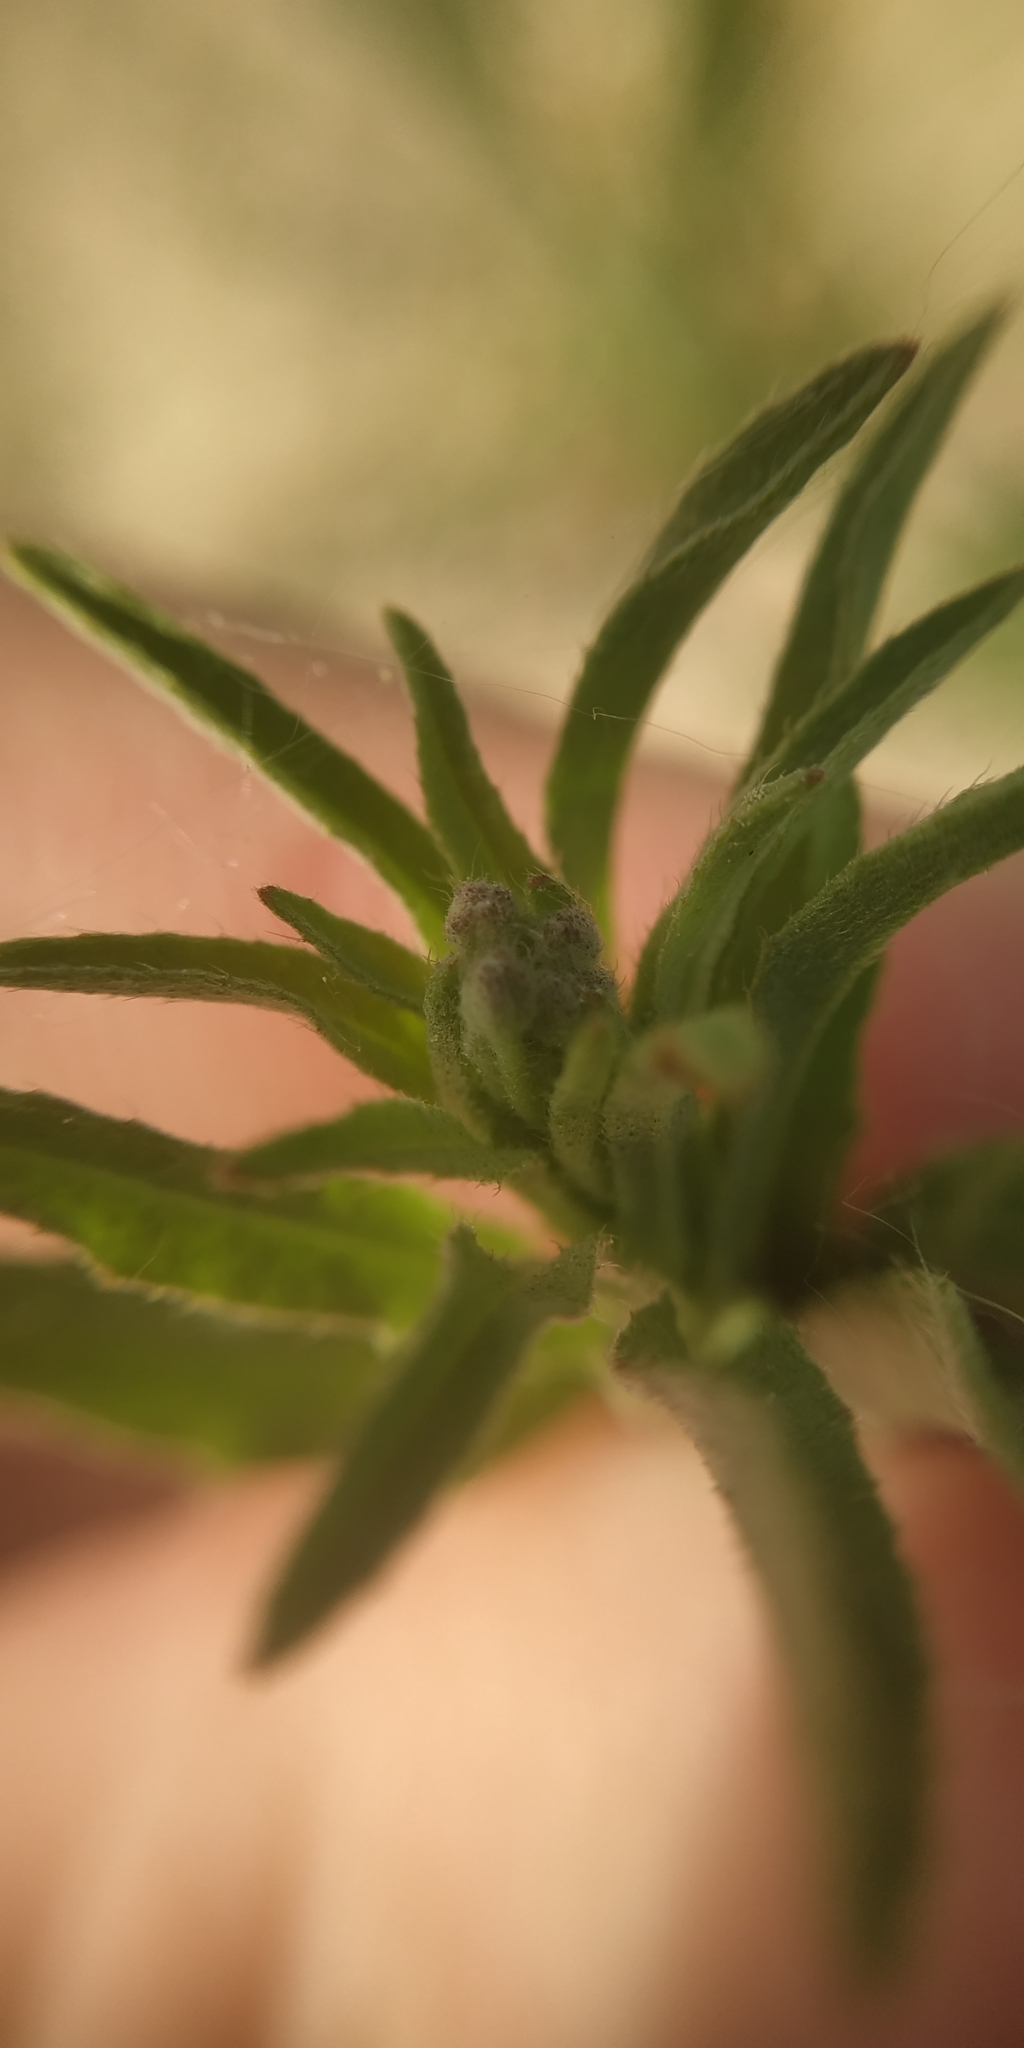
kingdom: Plantae
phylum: Tracheophyta
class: Magnoliopsida
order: Brassicales
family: Brassicaceae
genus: Berteroa
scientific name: Berteroa incana
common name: Hoary alison
